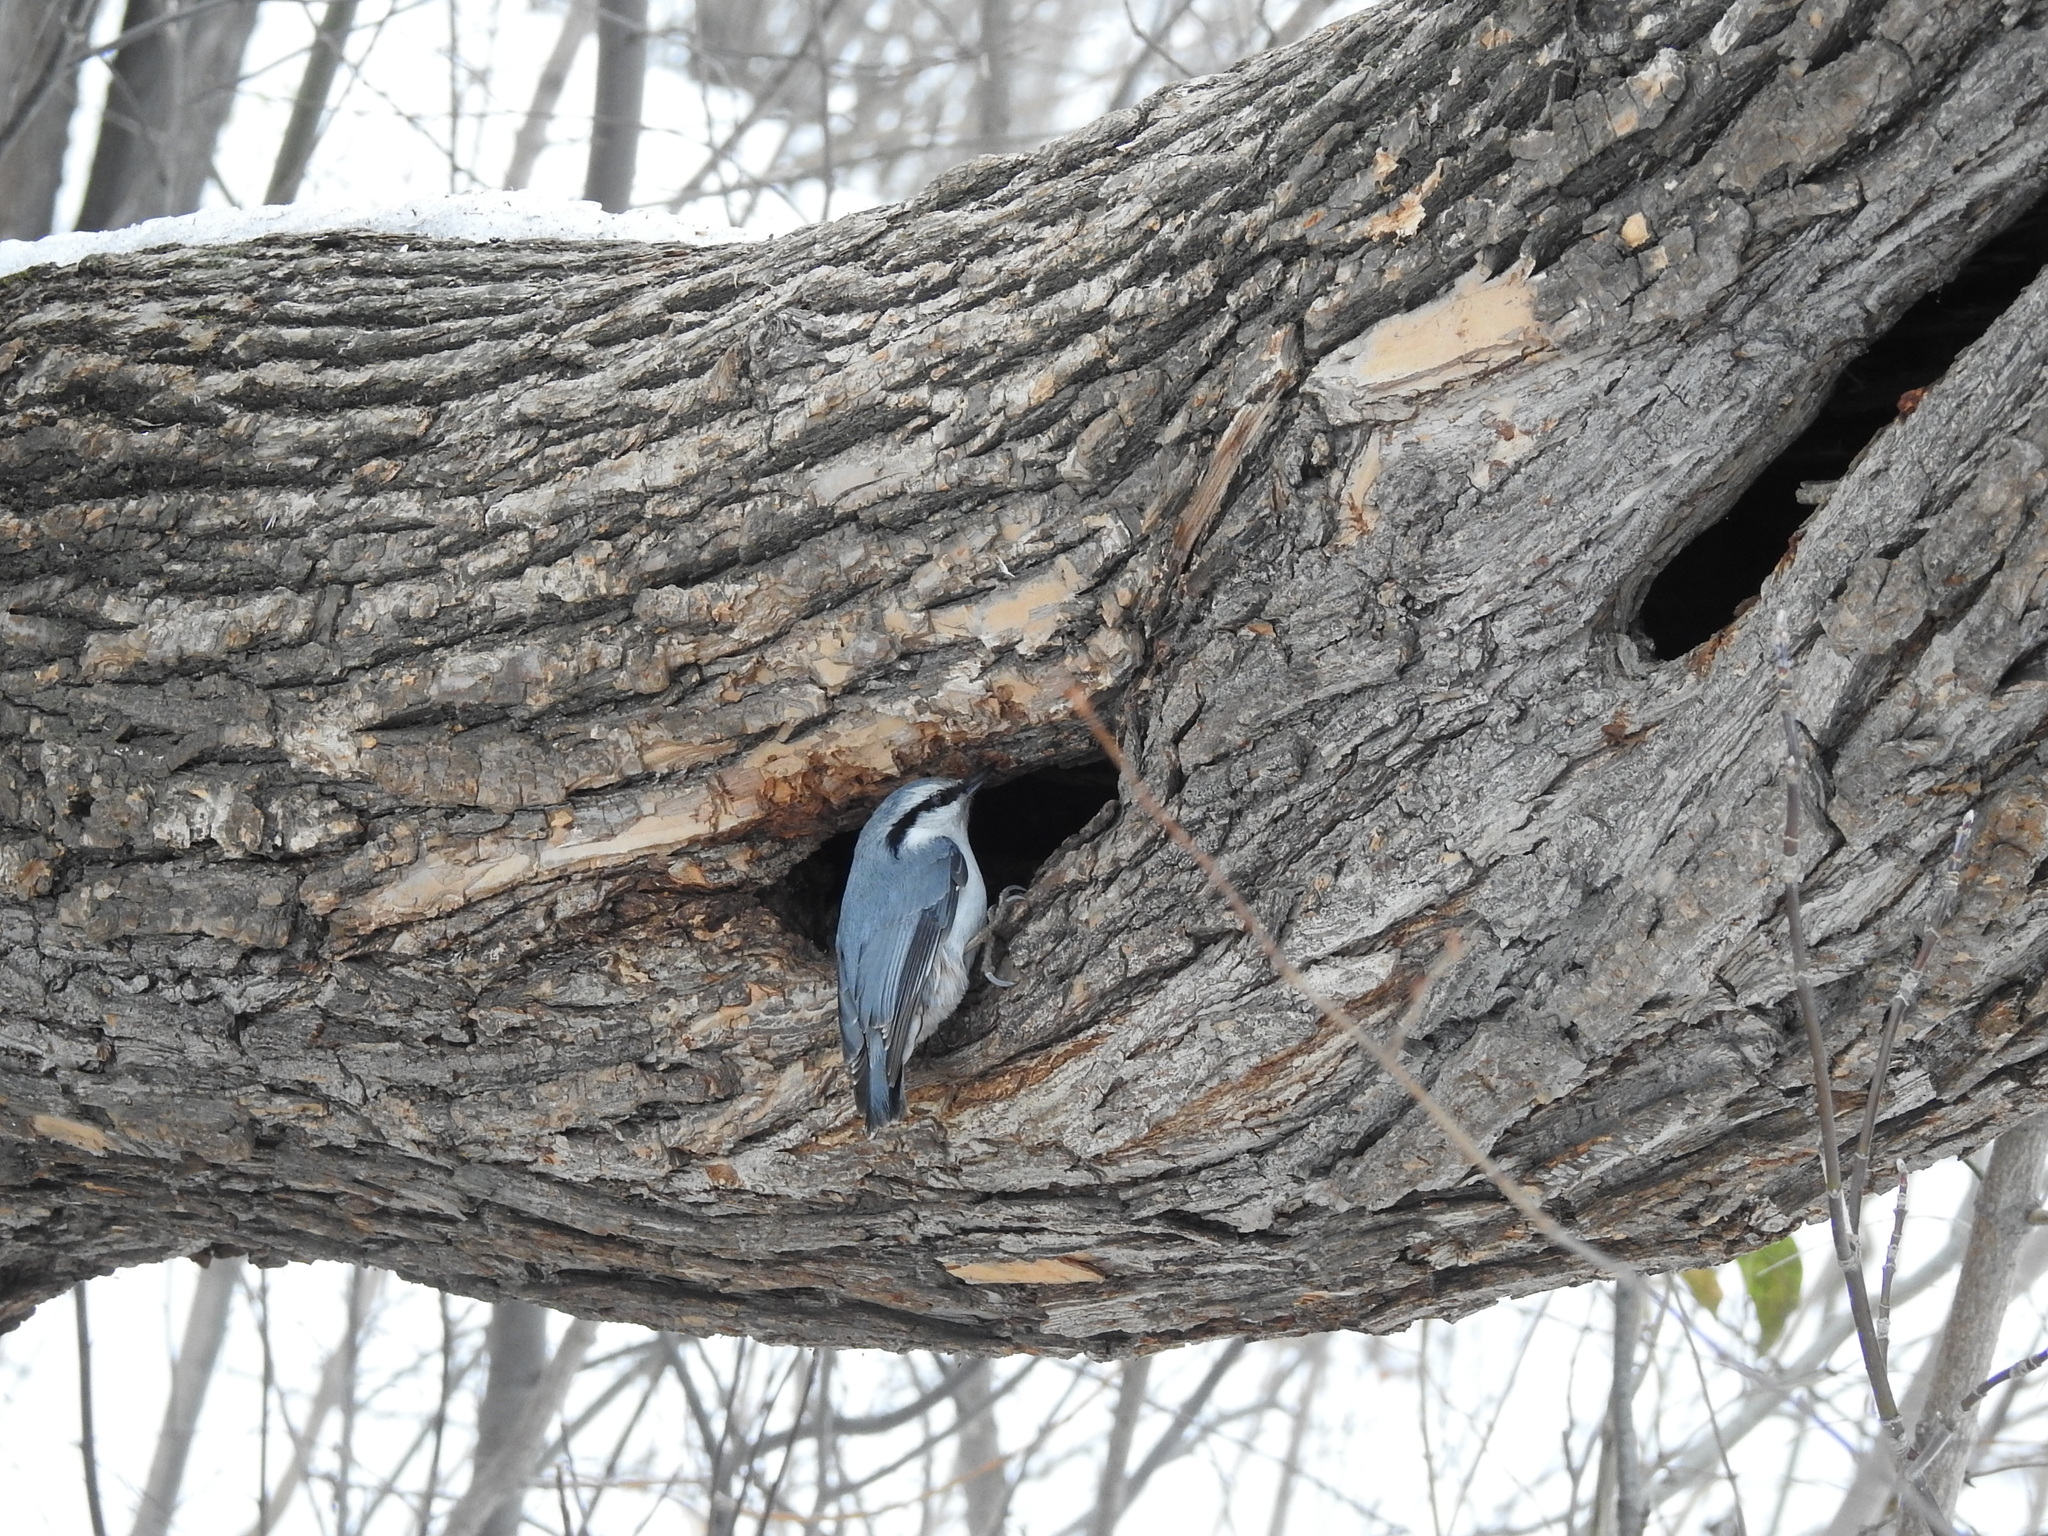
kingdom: Animalia
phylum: Chordata
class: Aves
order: Passeriformes
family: Sittidae
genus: Sitta
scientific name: Sitta europaea
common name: Eurasian nuthatch
